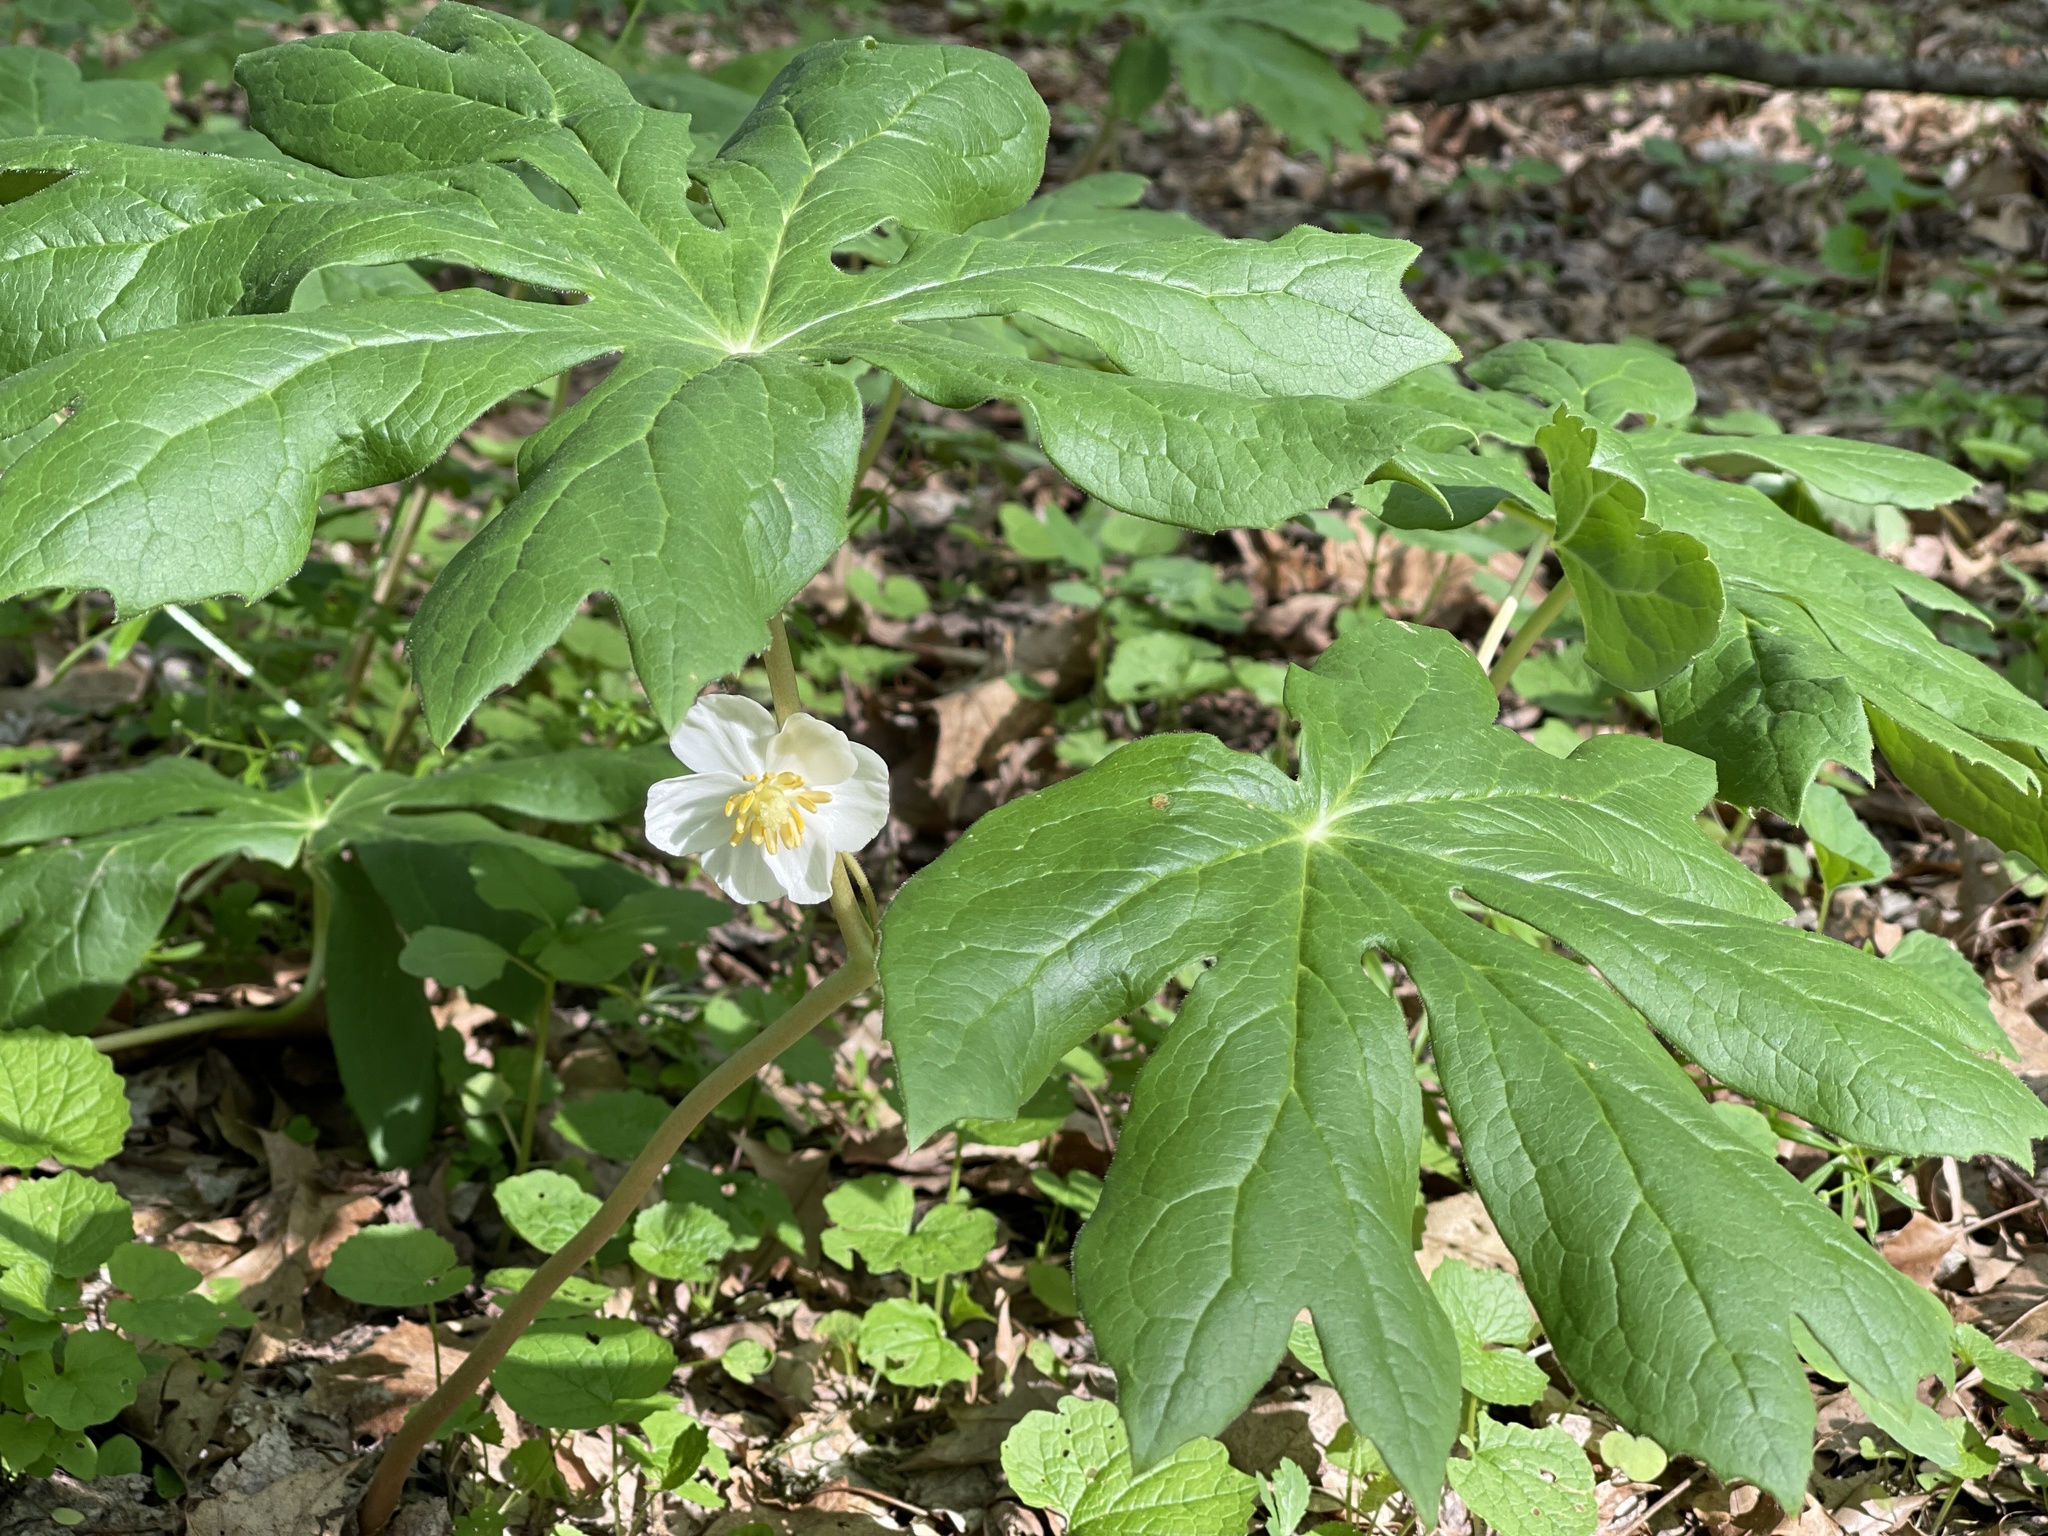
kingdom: Plantae
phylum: Tracheophyta
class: Magnoliopsida
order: Ranunculales
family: Berberidaceae
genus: Podophyllum
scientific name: Podophyllum peltatum
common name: Wild mandrake
